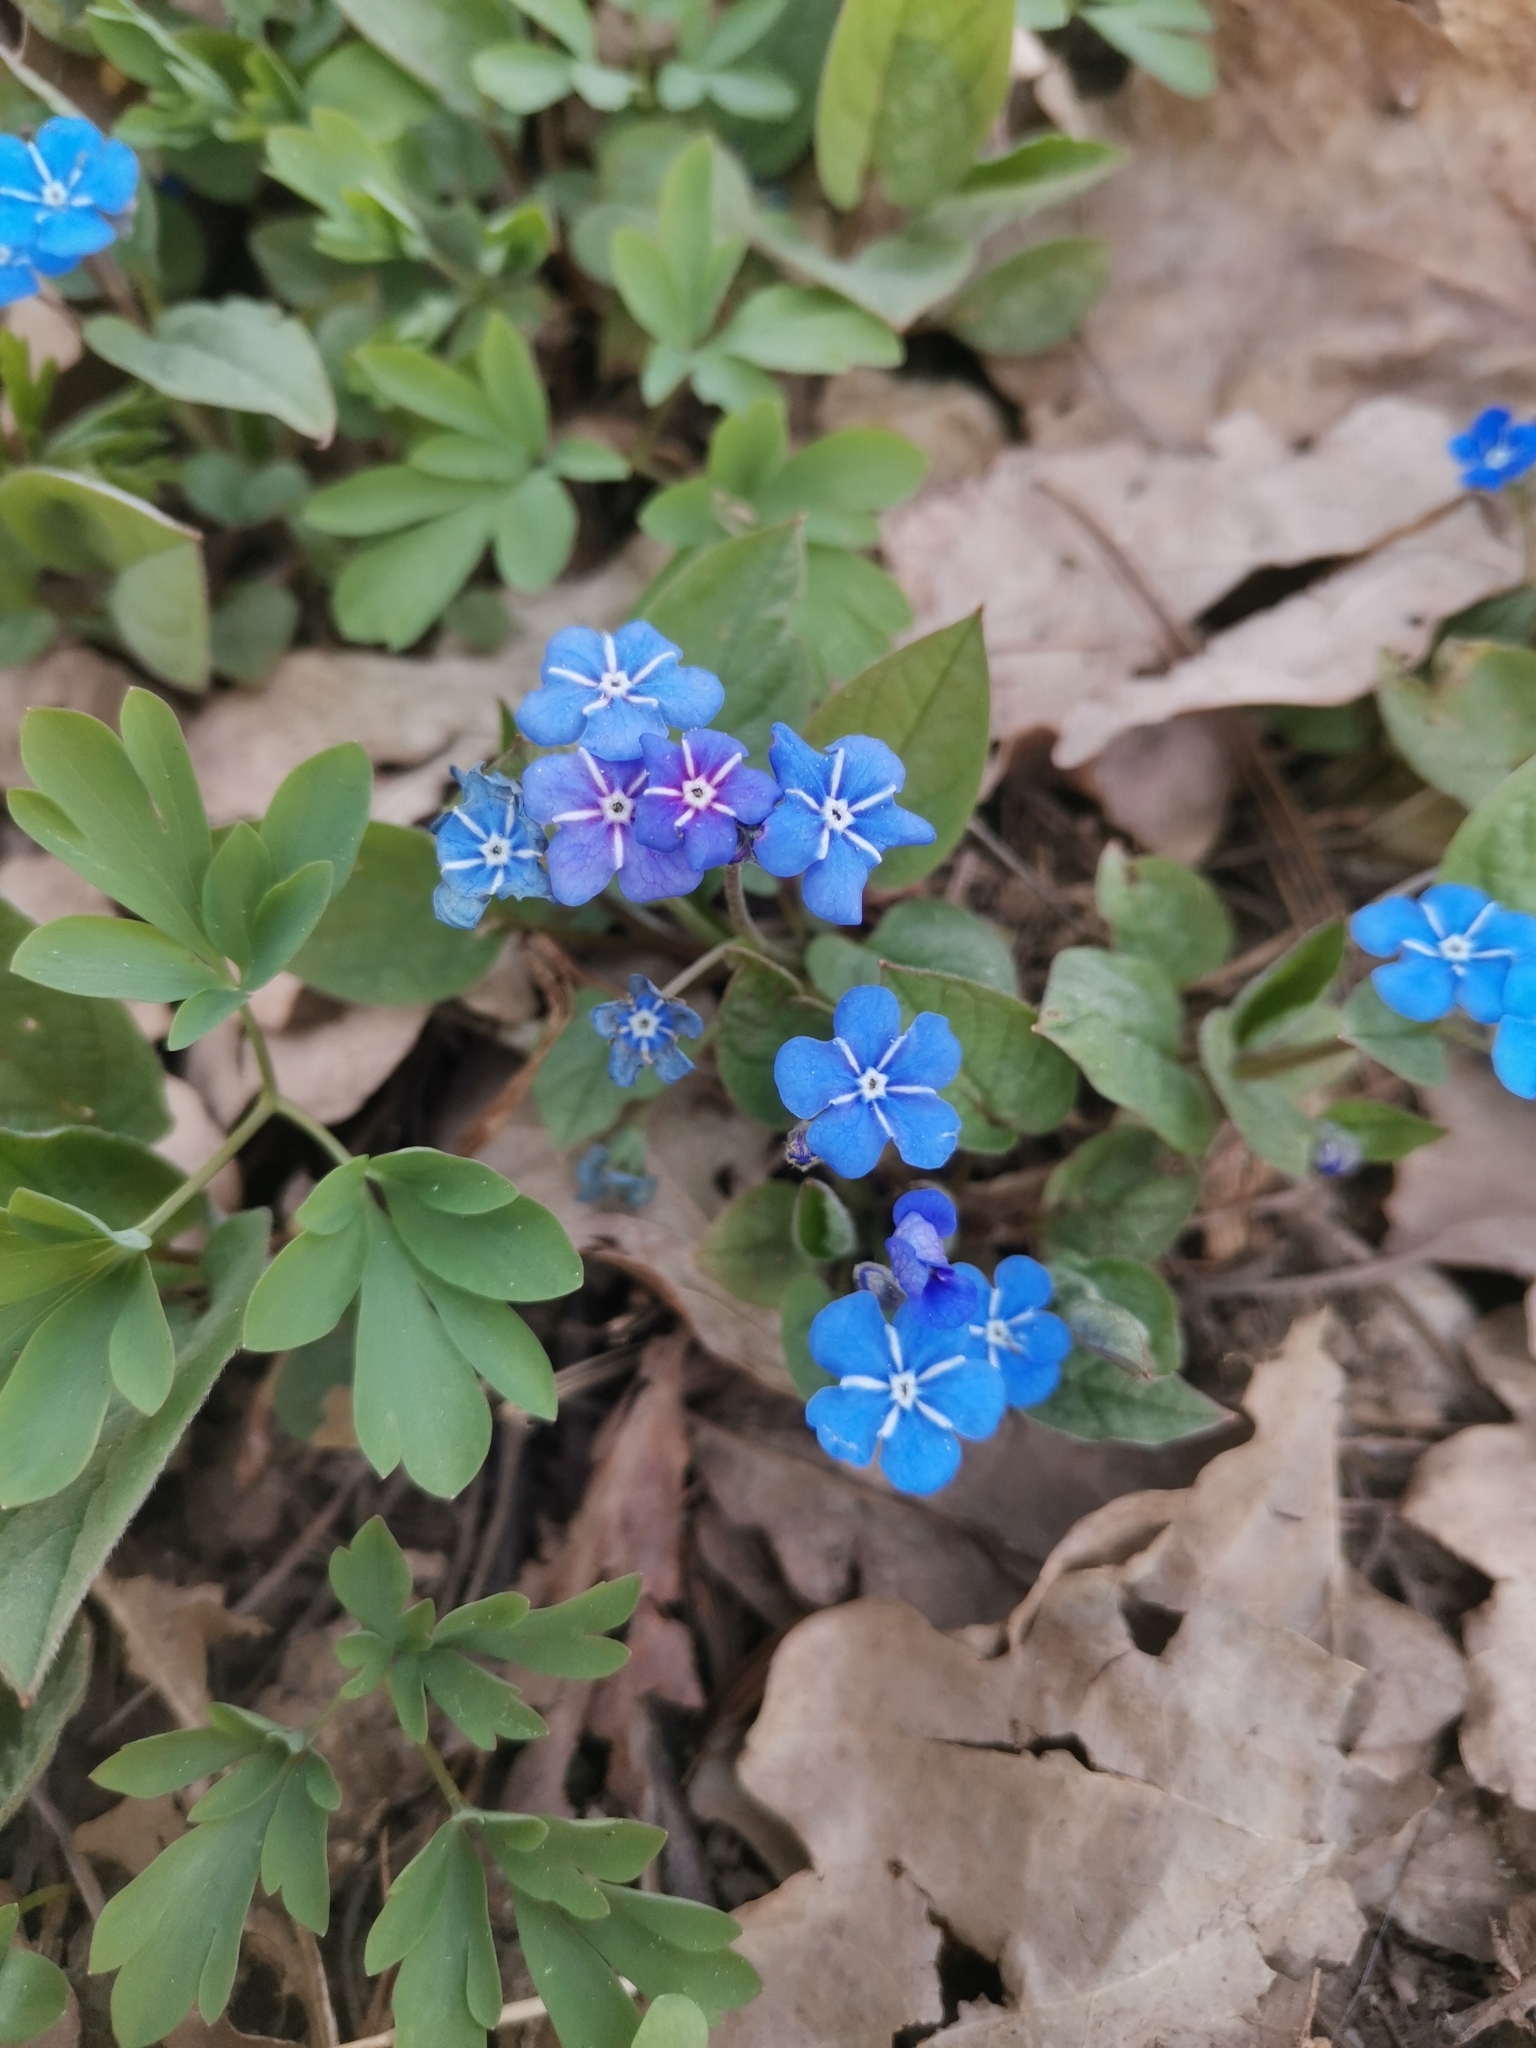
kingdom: Plantae
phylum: Tracheophyta
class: Magnoliopsida
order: Boraginales
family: Boraginaceae
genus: Omphalodes
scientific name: Omphalodes verna
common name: Blue-eyed-mary
